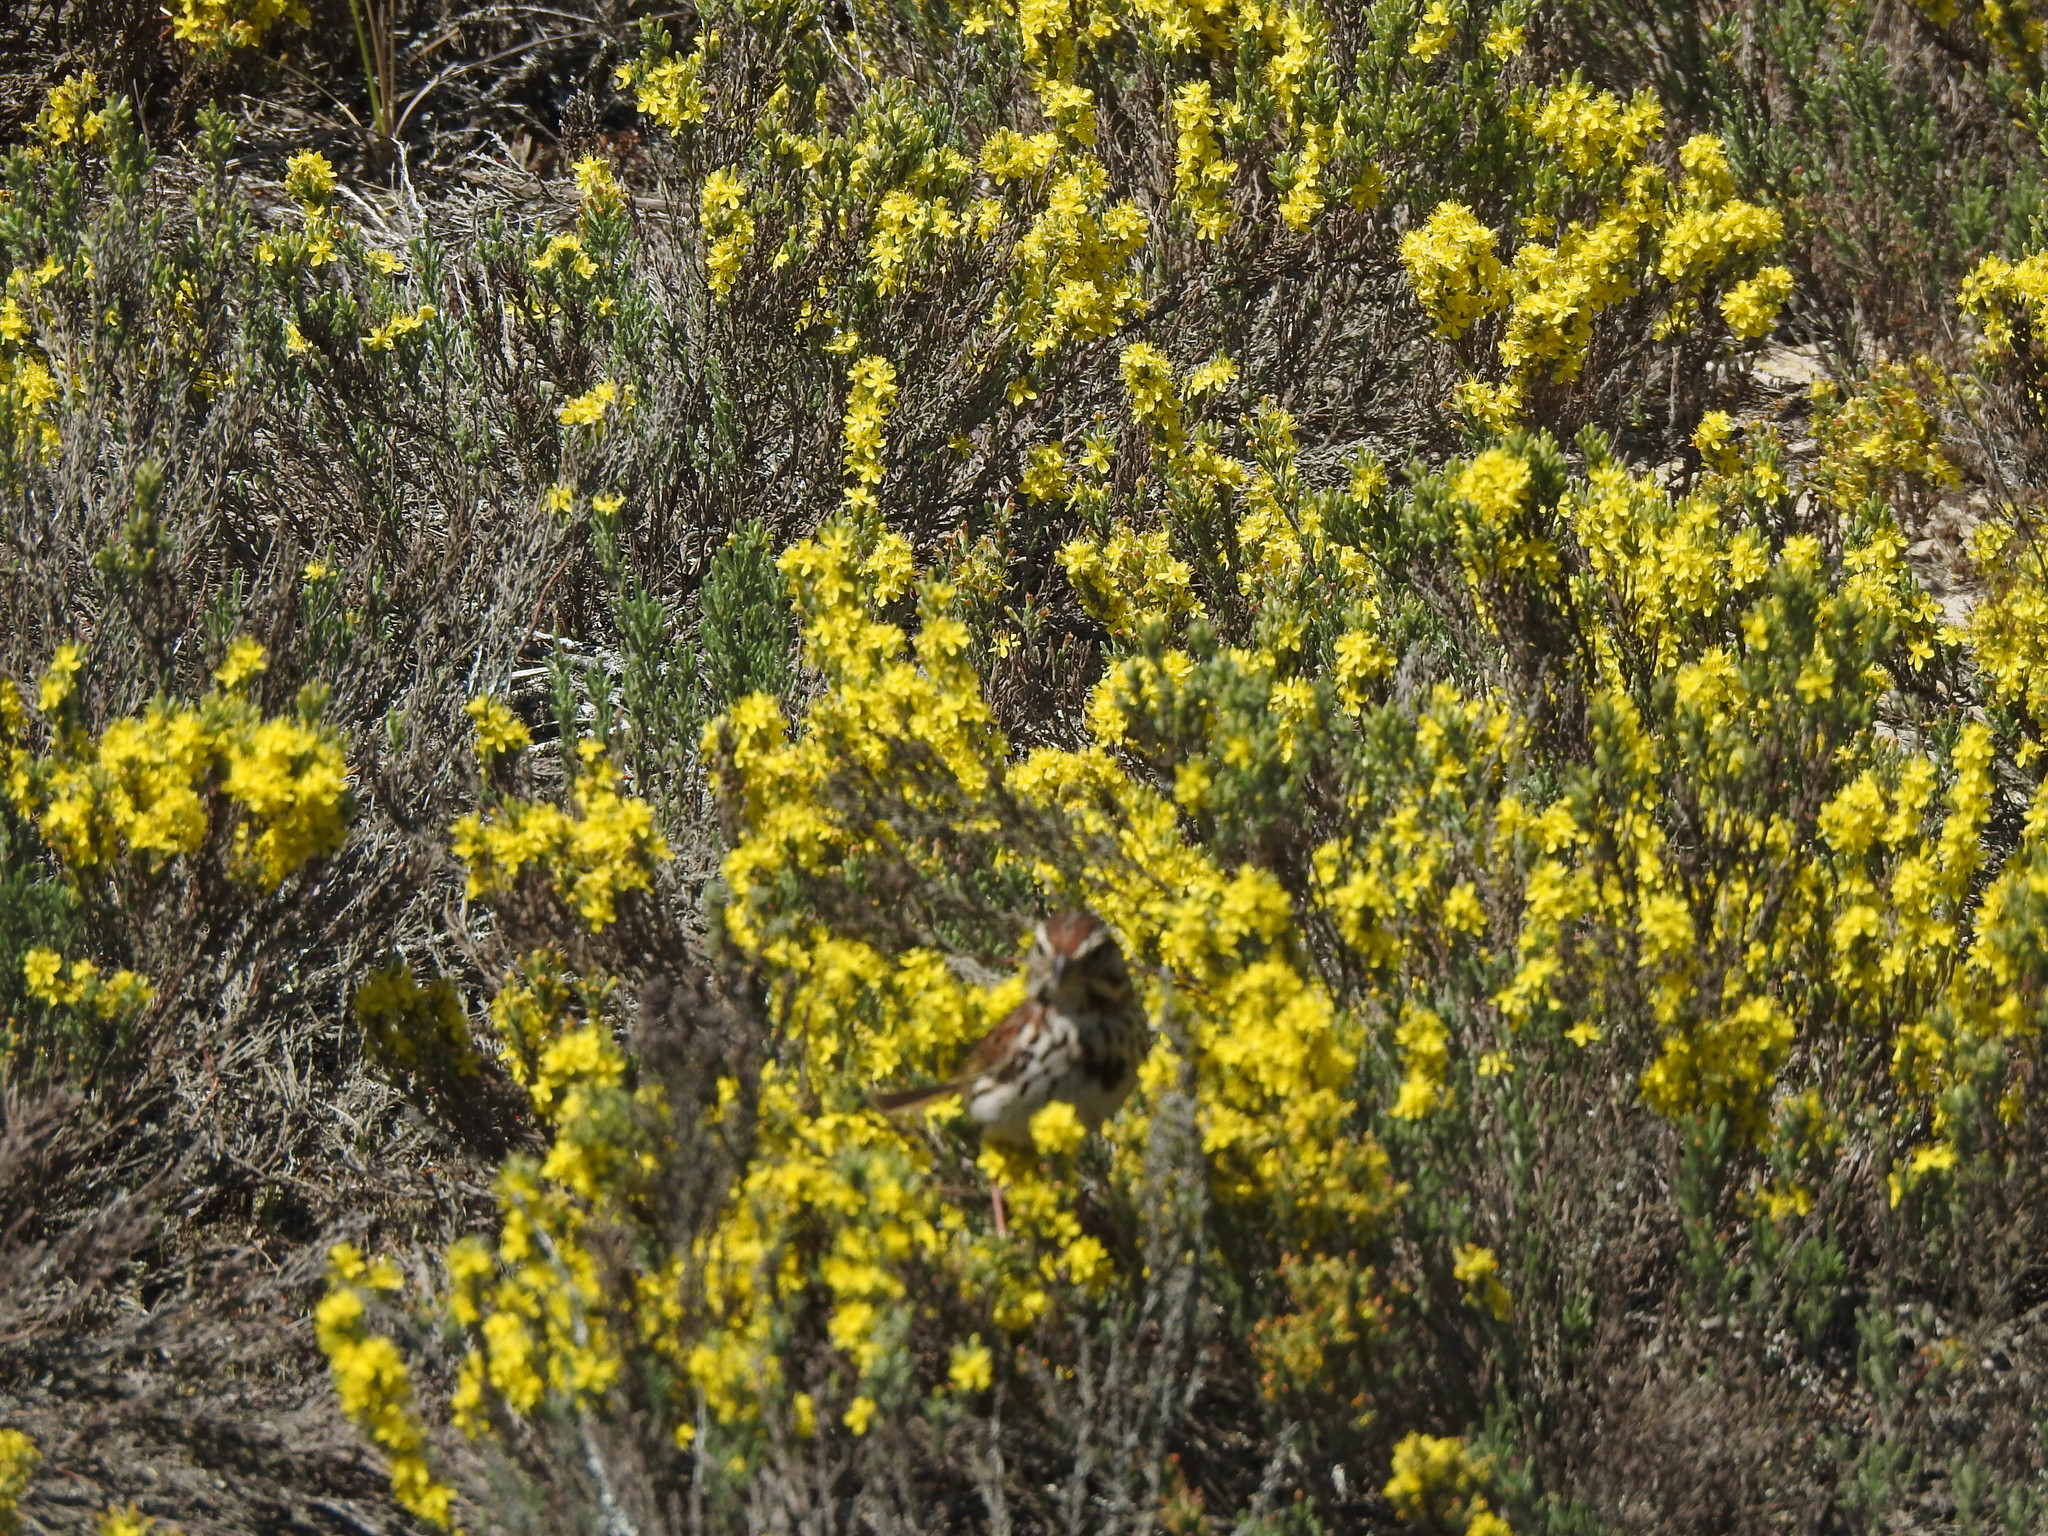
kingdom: Animalia
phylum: Chordata
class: Aves
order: Passeriformes
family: Passerellidae
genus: Melospiza
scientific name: Melospiza melodia
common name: Song sparrow
